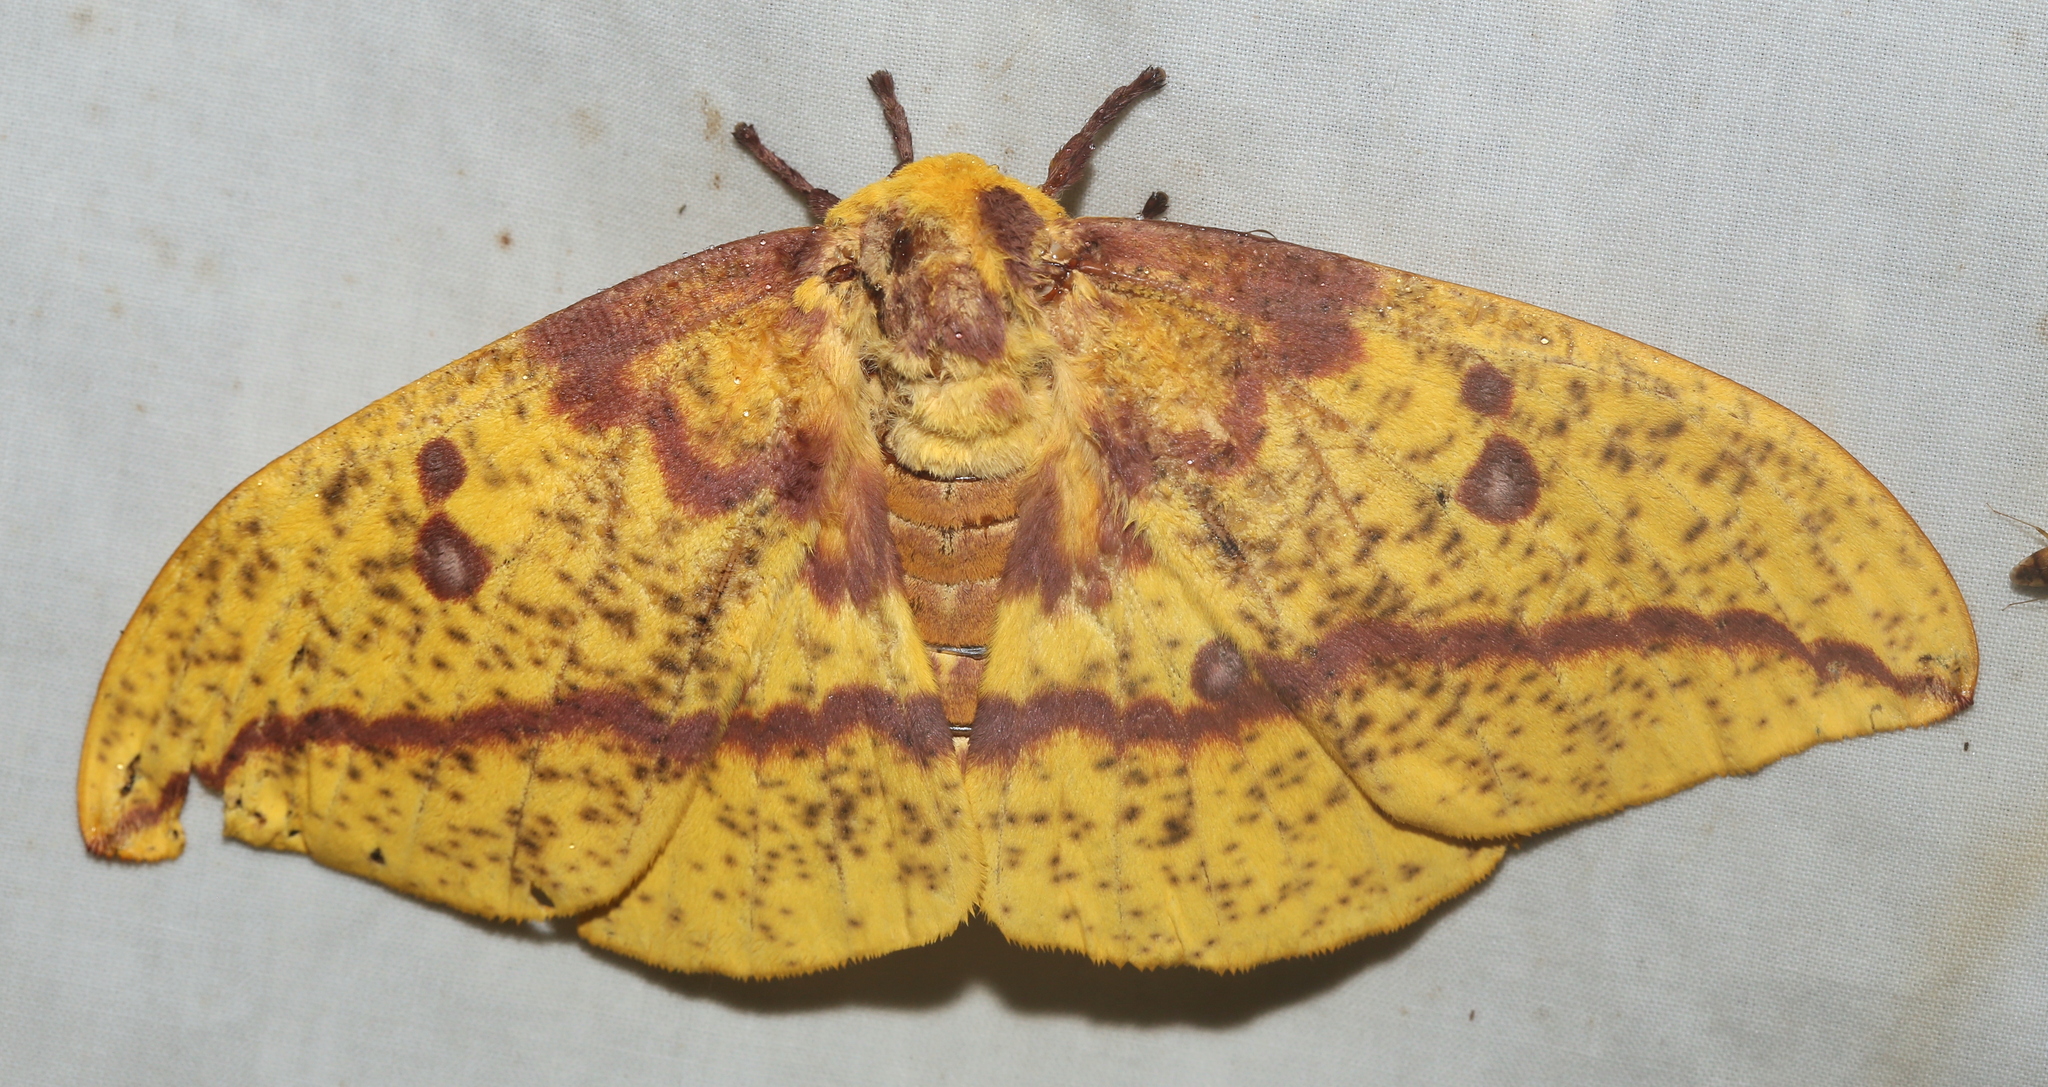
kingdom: Animalia
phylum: Arthropoda
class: Insecta
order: Lepidoptera
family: Saturniidae
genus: Eacles
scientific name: Eacles imperialis
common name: Imperial moth
